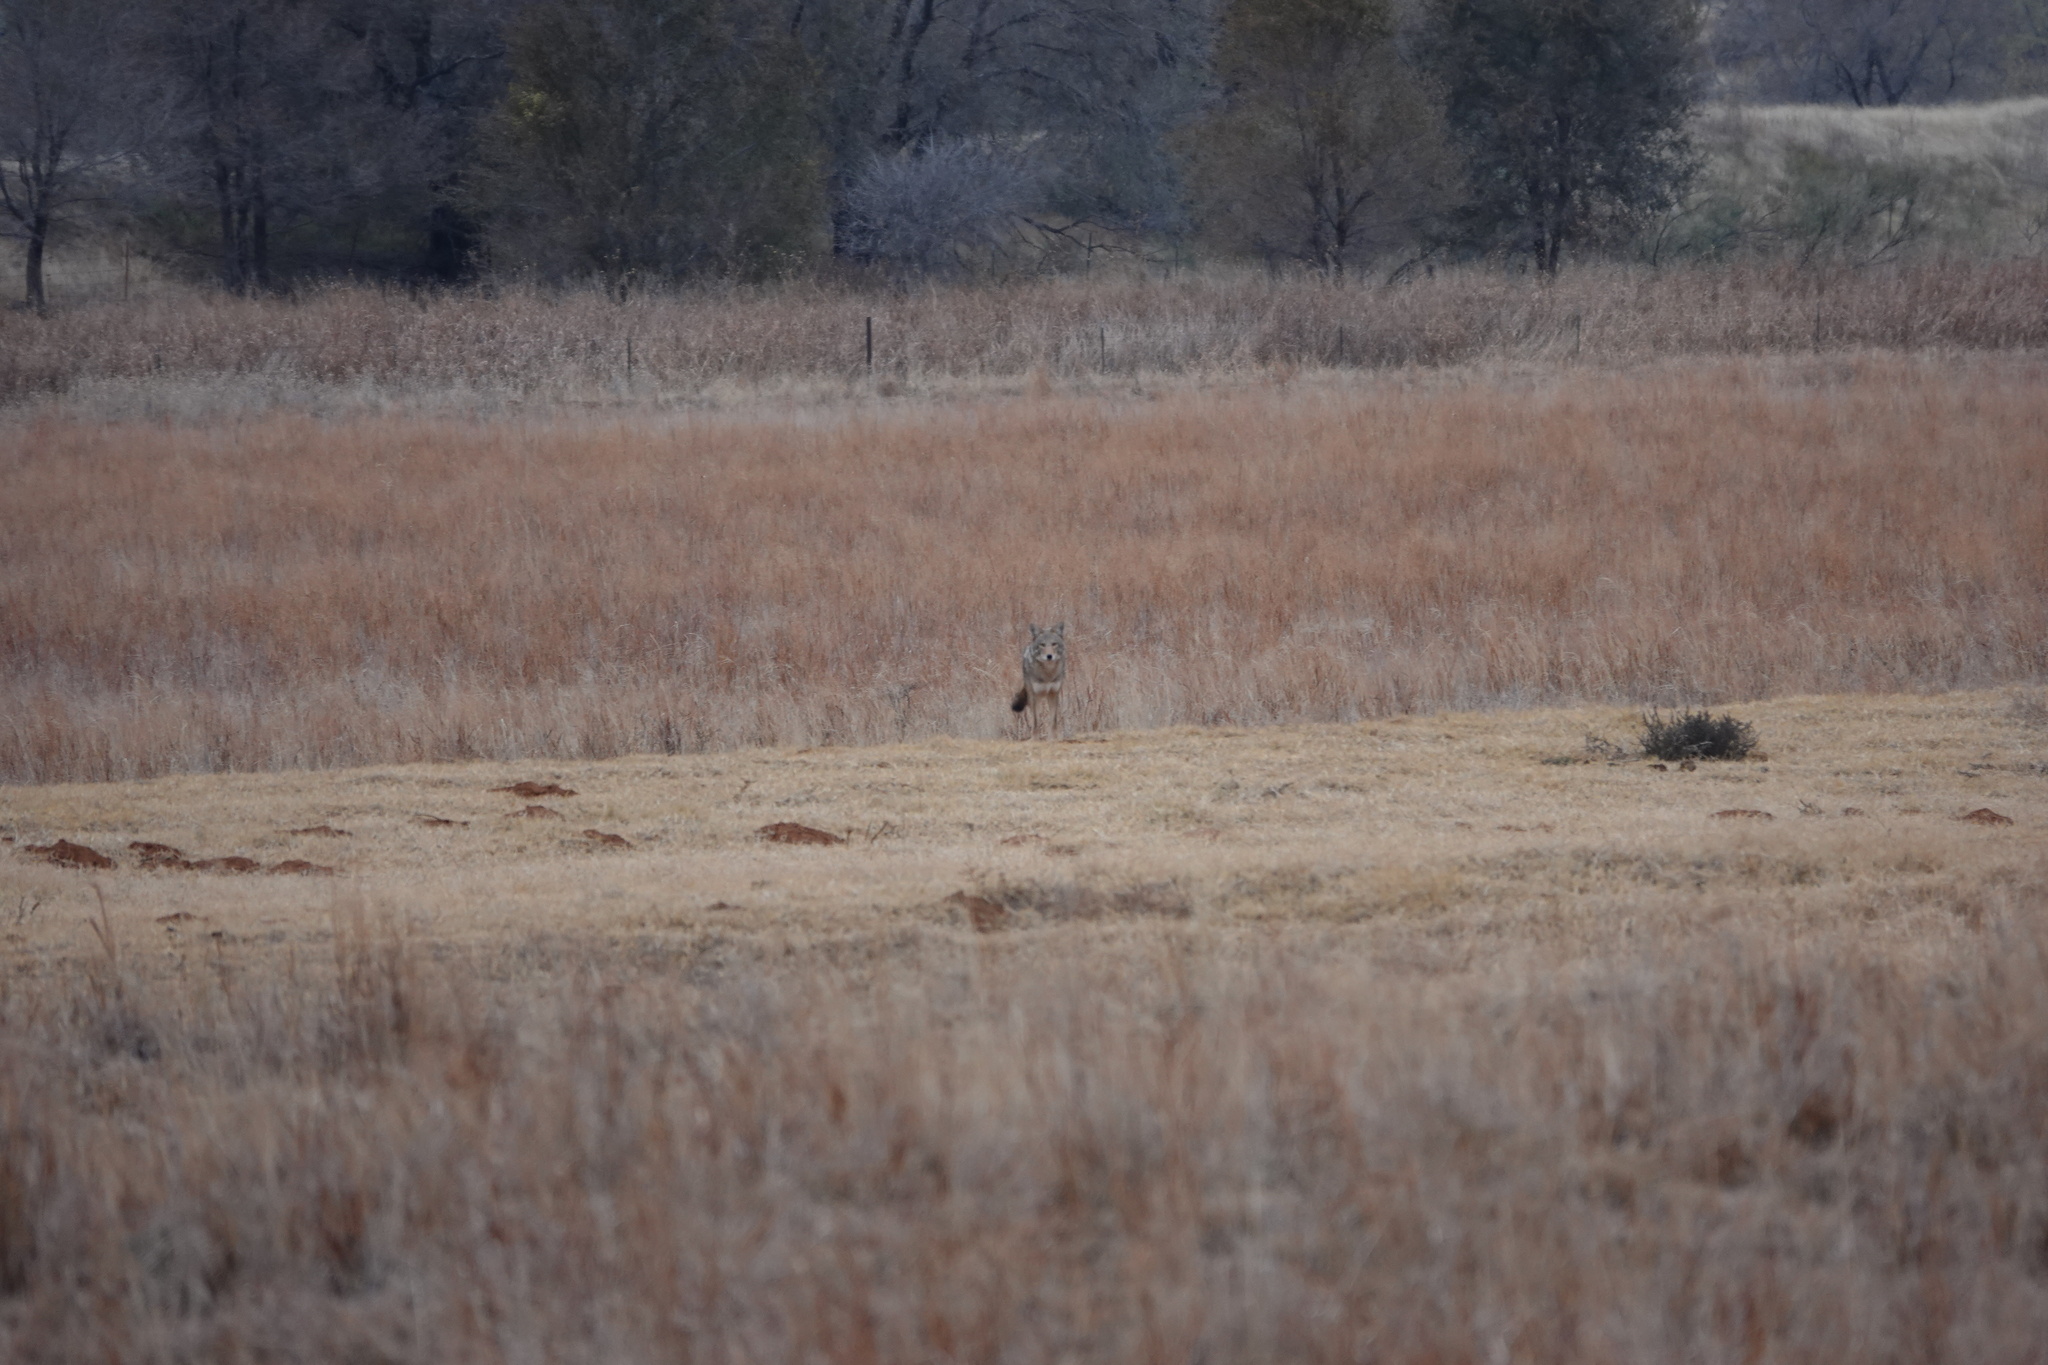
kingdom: Animalia
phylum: Chordata
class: Mammalia
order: Carnivora
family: Canidae
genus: Canis
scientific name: Canis latrans
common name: Coyote
